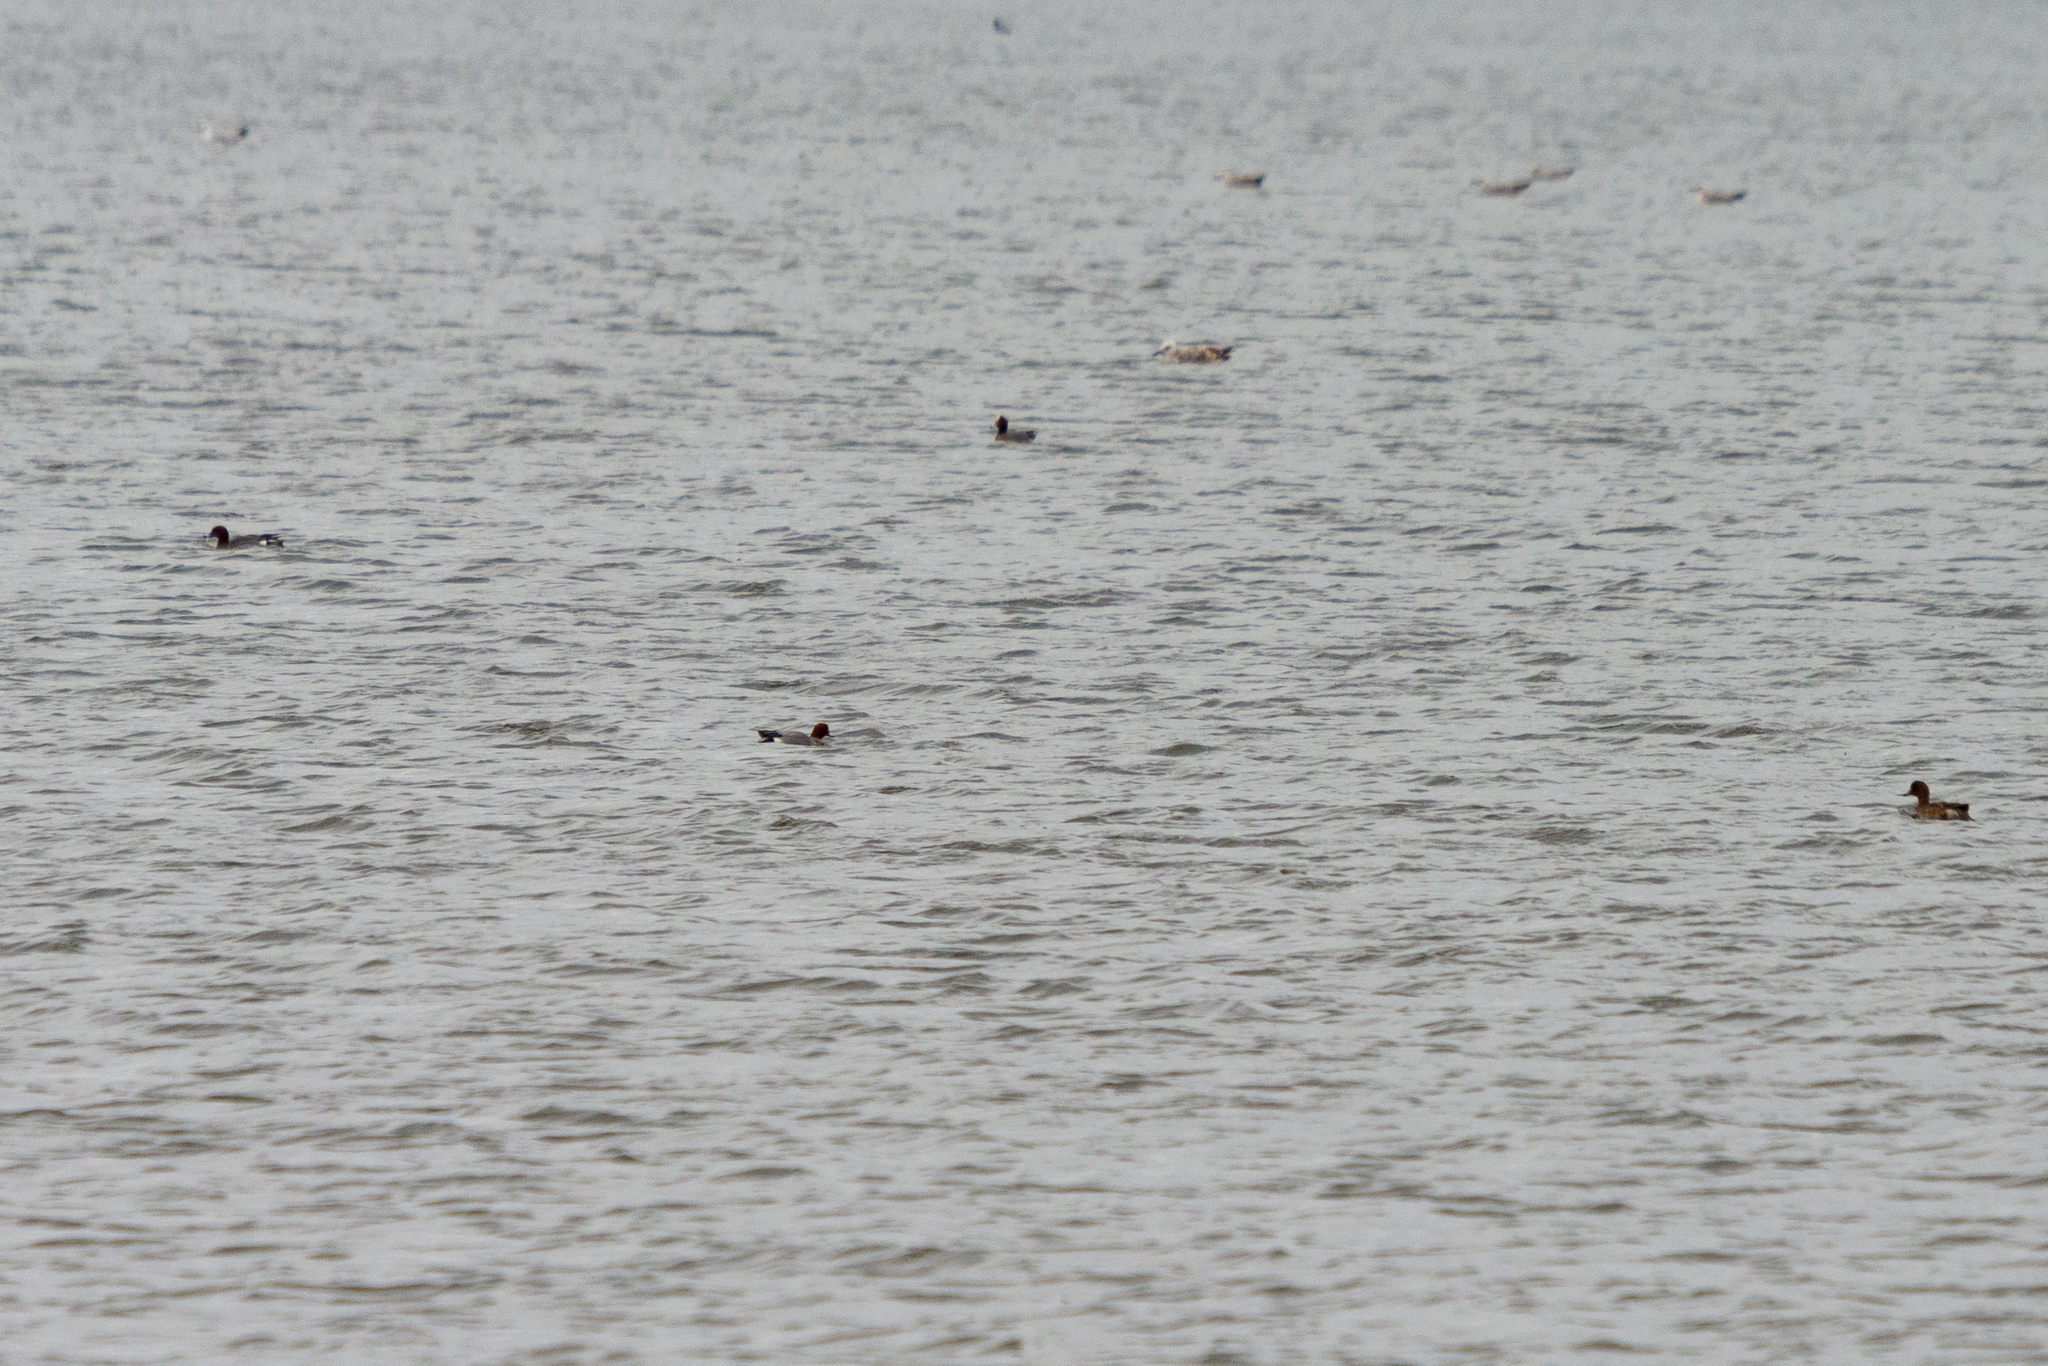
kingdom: Animalia
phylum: Chordata
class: Aves
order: Anseriformes
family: Anatidae
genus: Mareca
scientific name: Mareca penelope
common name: Eurasian wigeon
